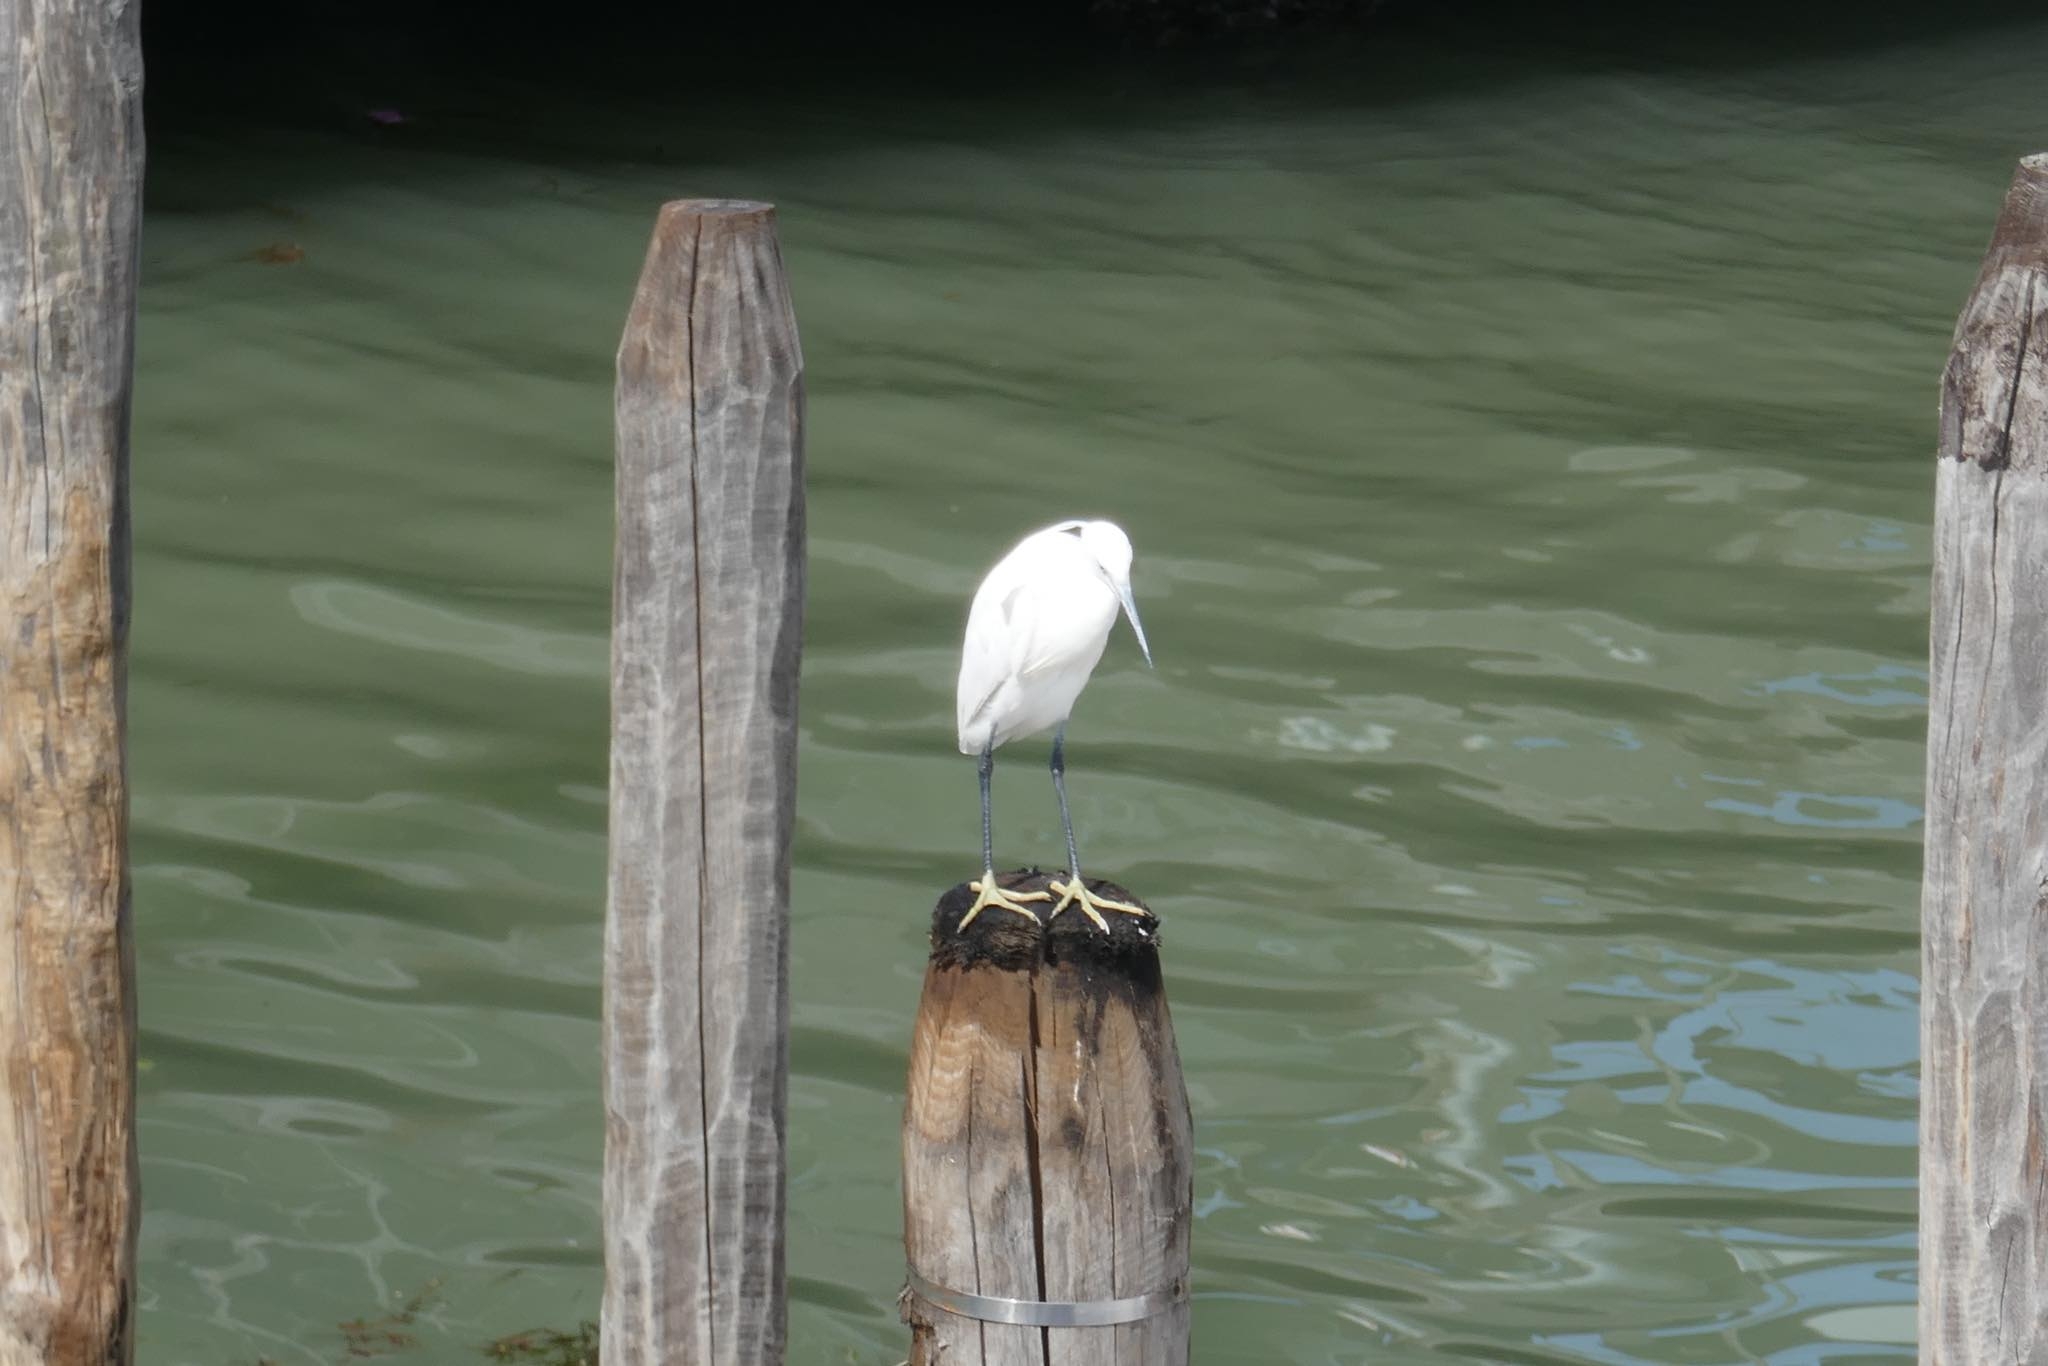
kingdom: Animalia
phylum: Chordata
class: Aves
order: Pelecaniformes
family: Ardeidae
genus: Egretta
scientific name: Egretta garzetta
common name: Little egret
